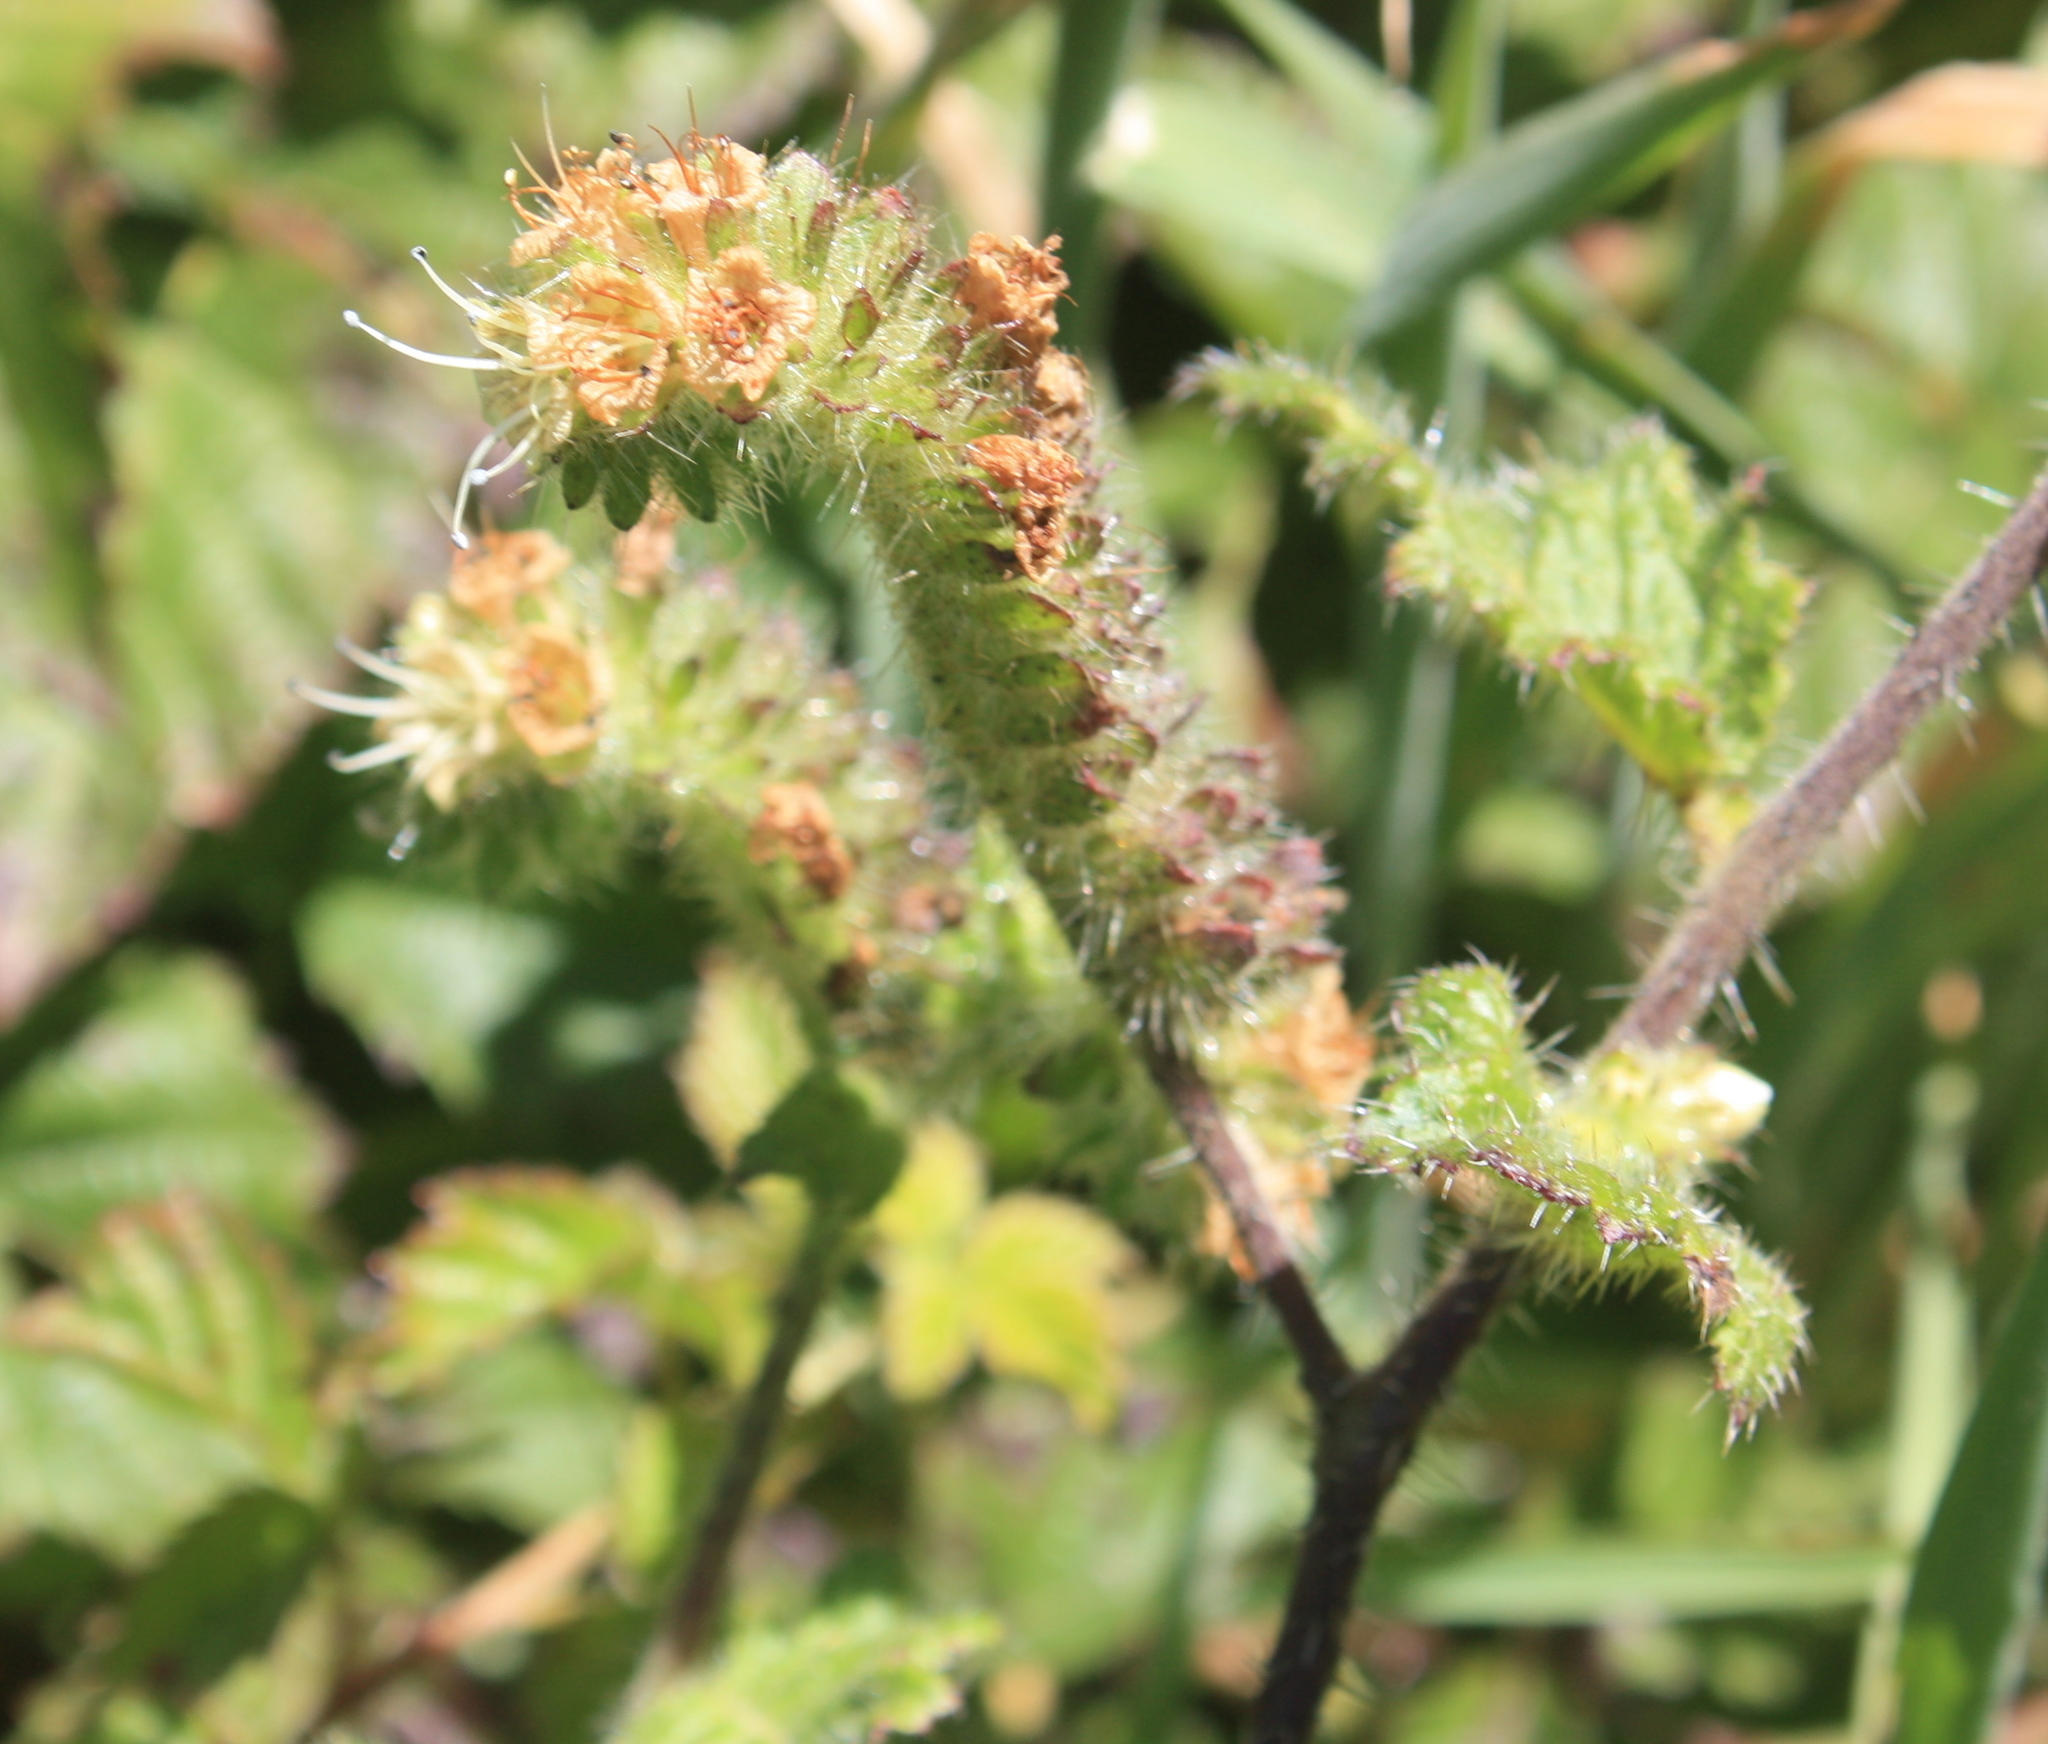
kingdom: Plantae
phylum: Tracheophyta
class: Magnoliopsida
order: Boraginales
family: Hydrophyllaceae
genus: Phacelia
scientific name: Phacelia malvifolia
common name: Mallow-leaf phacelia
